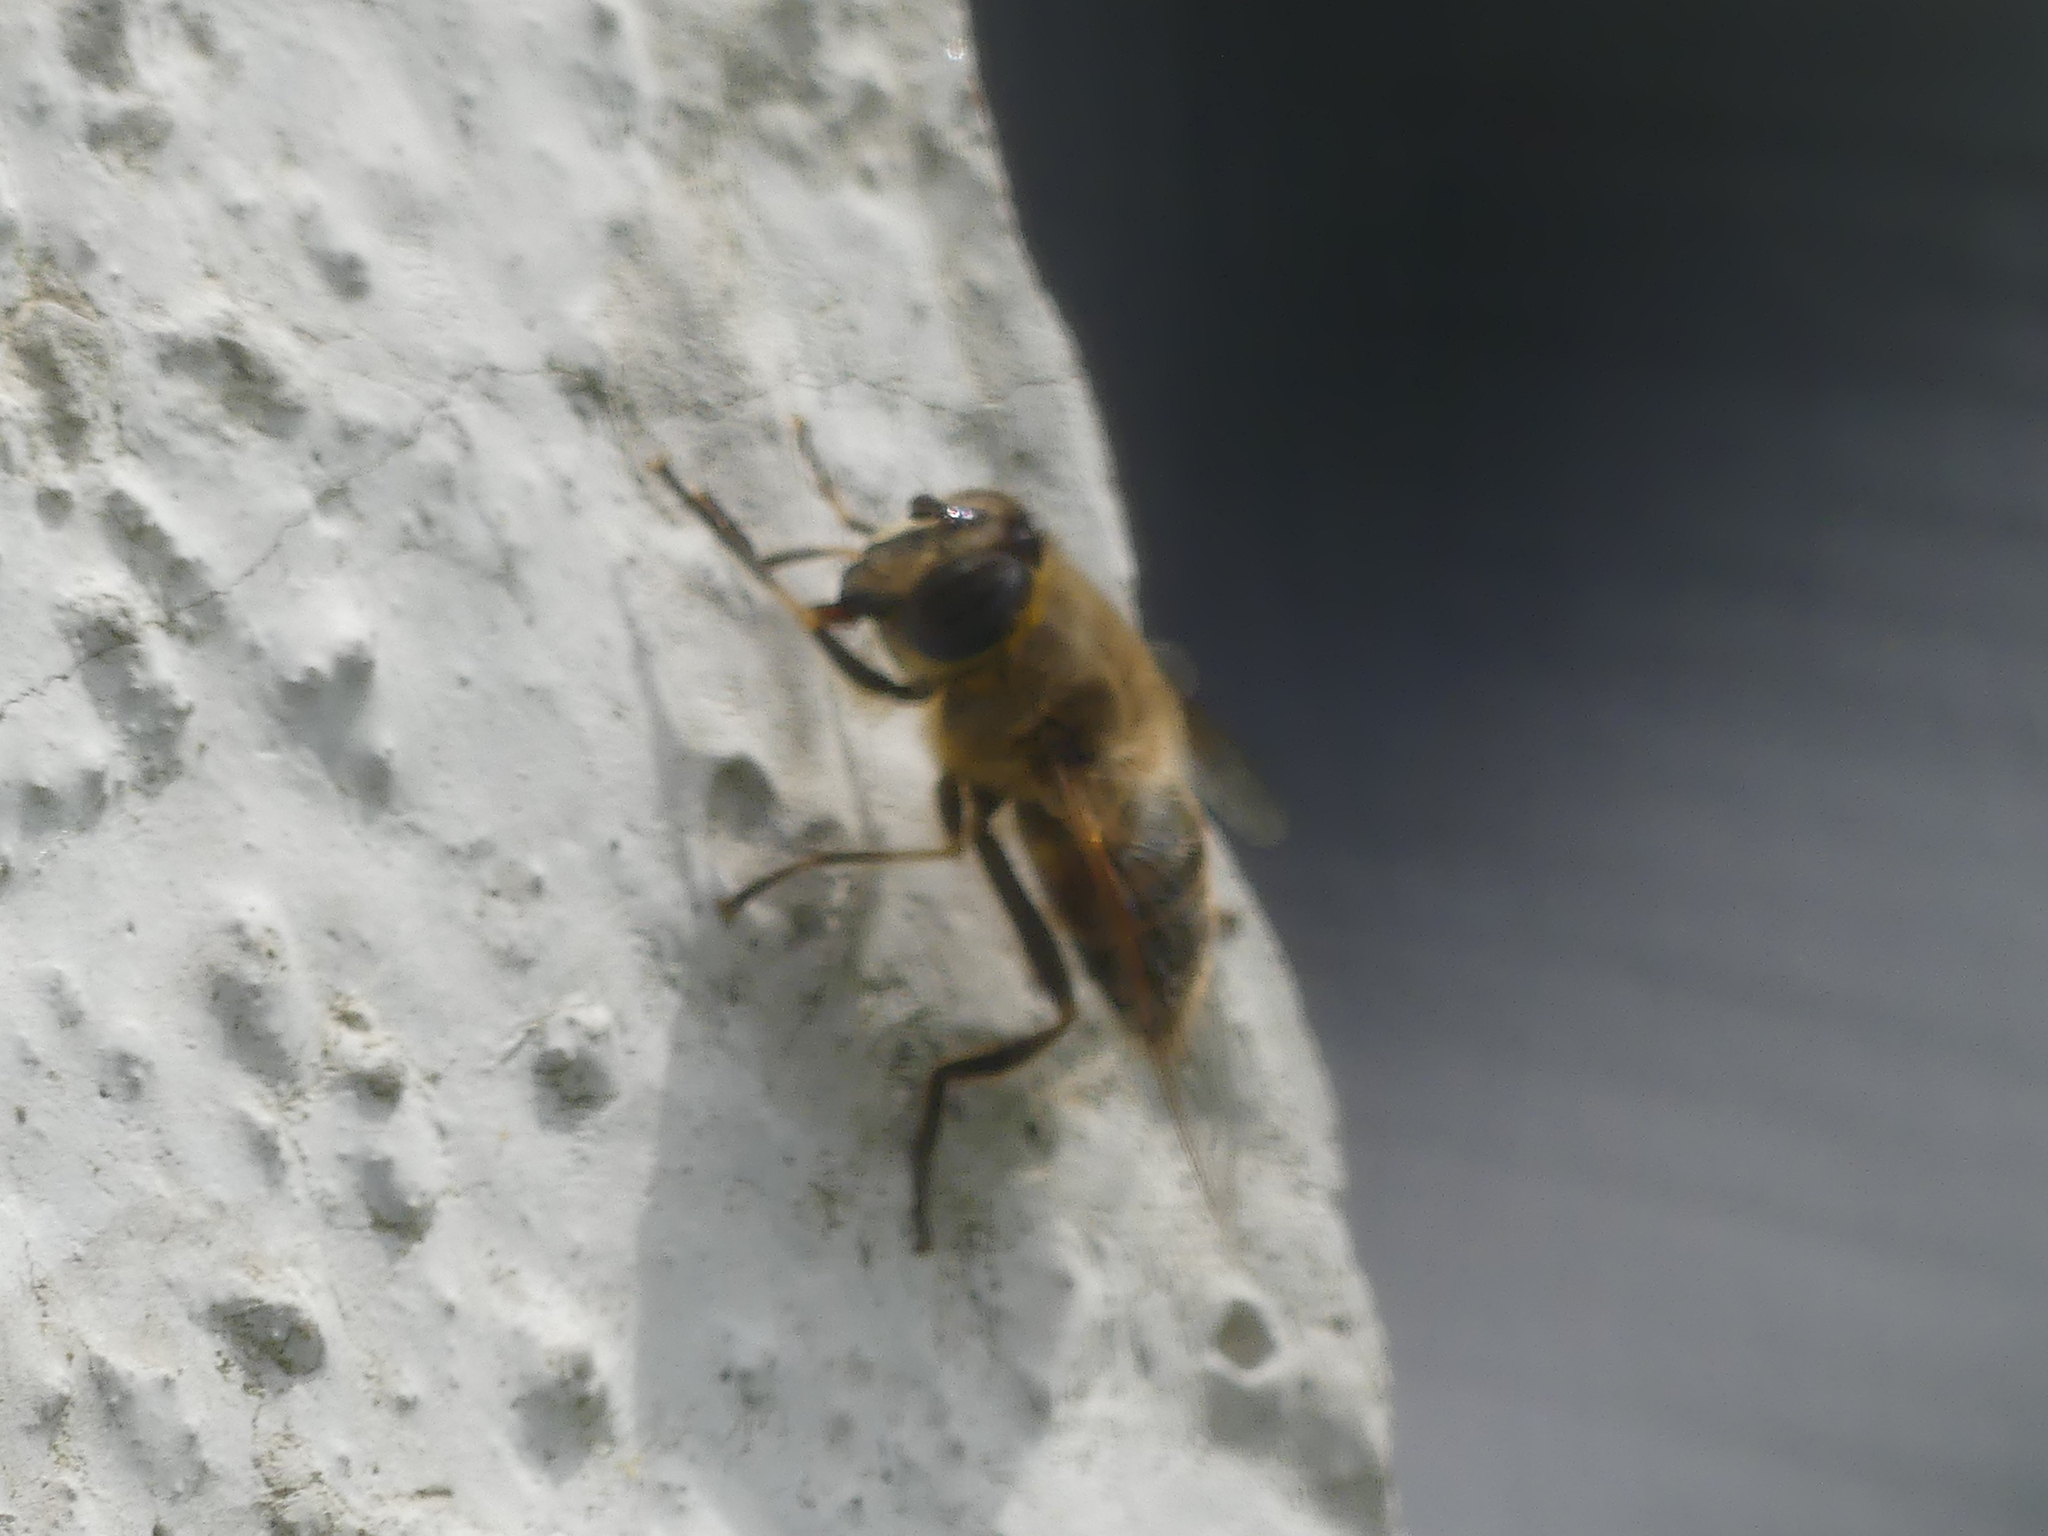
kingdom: Animalia
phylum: Arthropoda
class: Insecta
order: Diptera
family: Syrphidae
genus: Eristalis
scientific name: Eristalis tenax
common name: Drone fly
